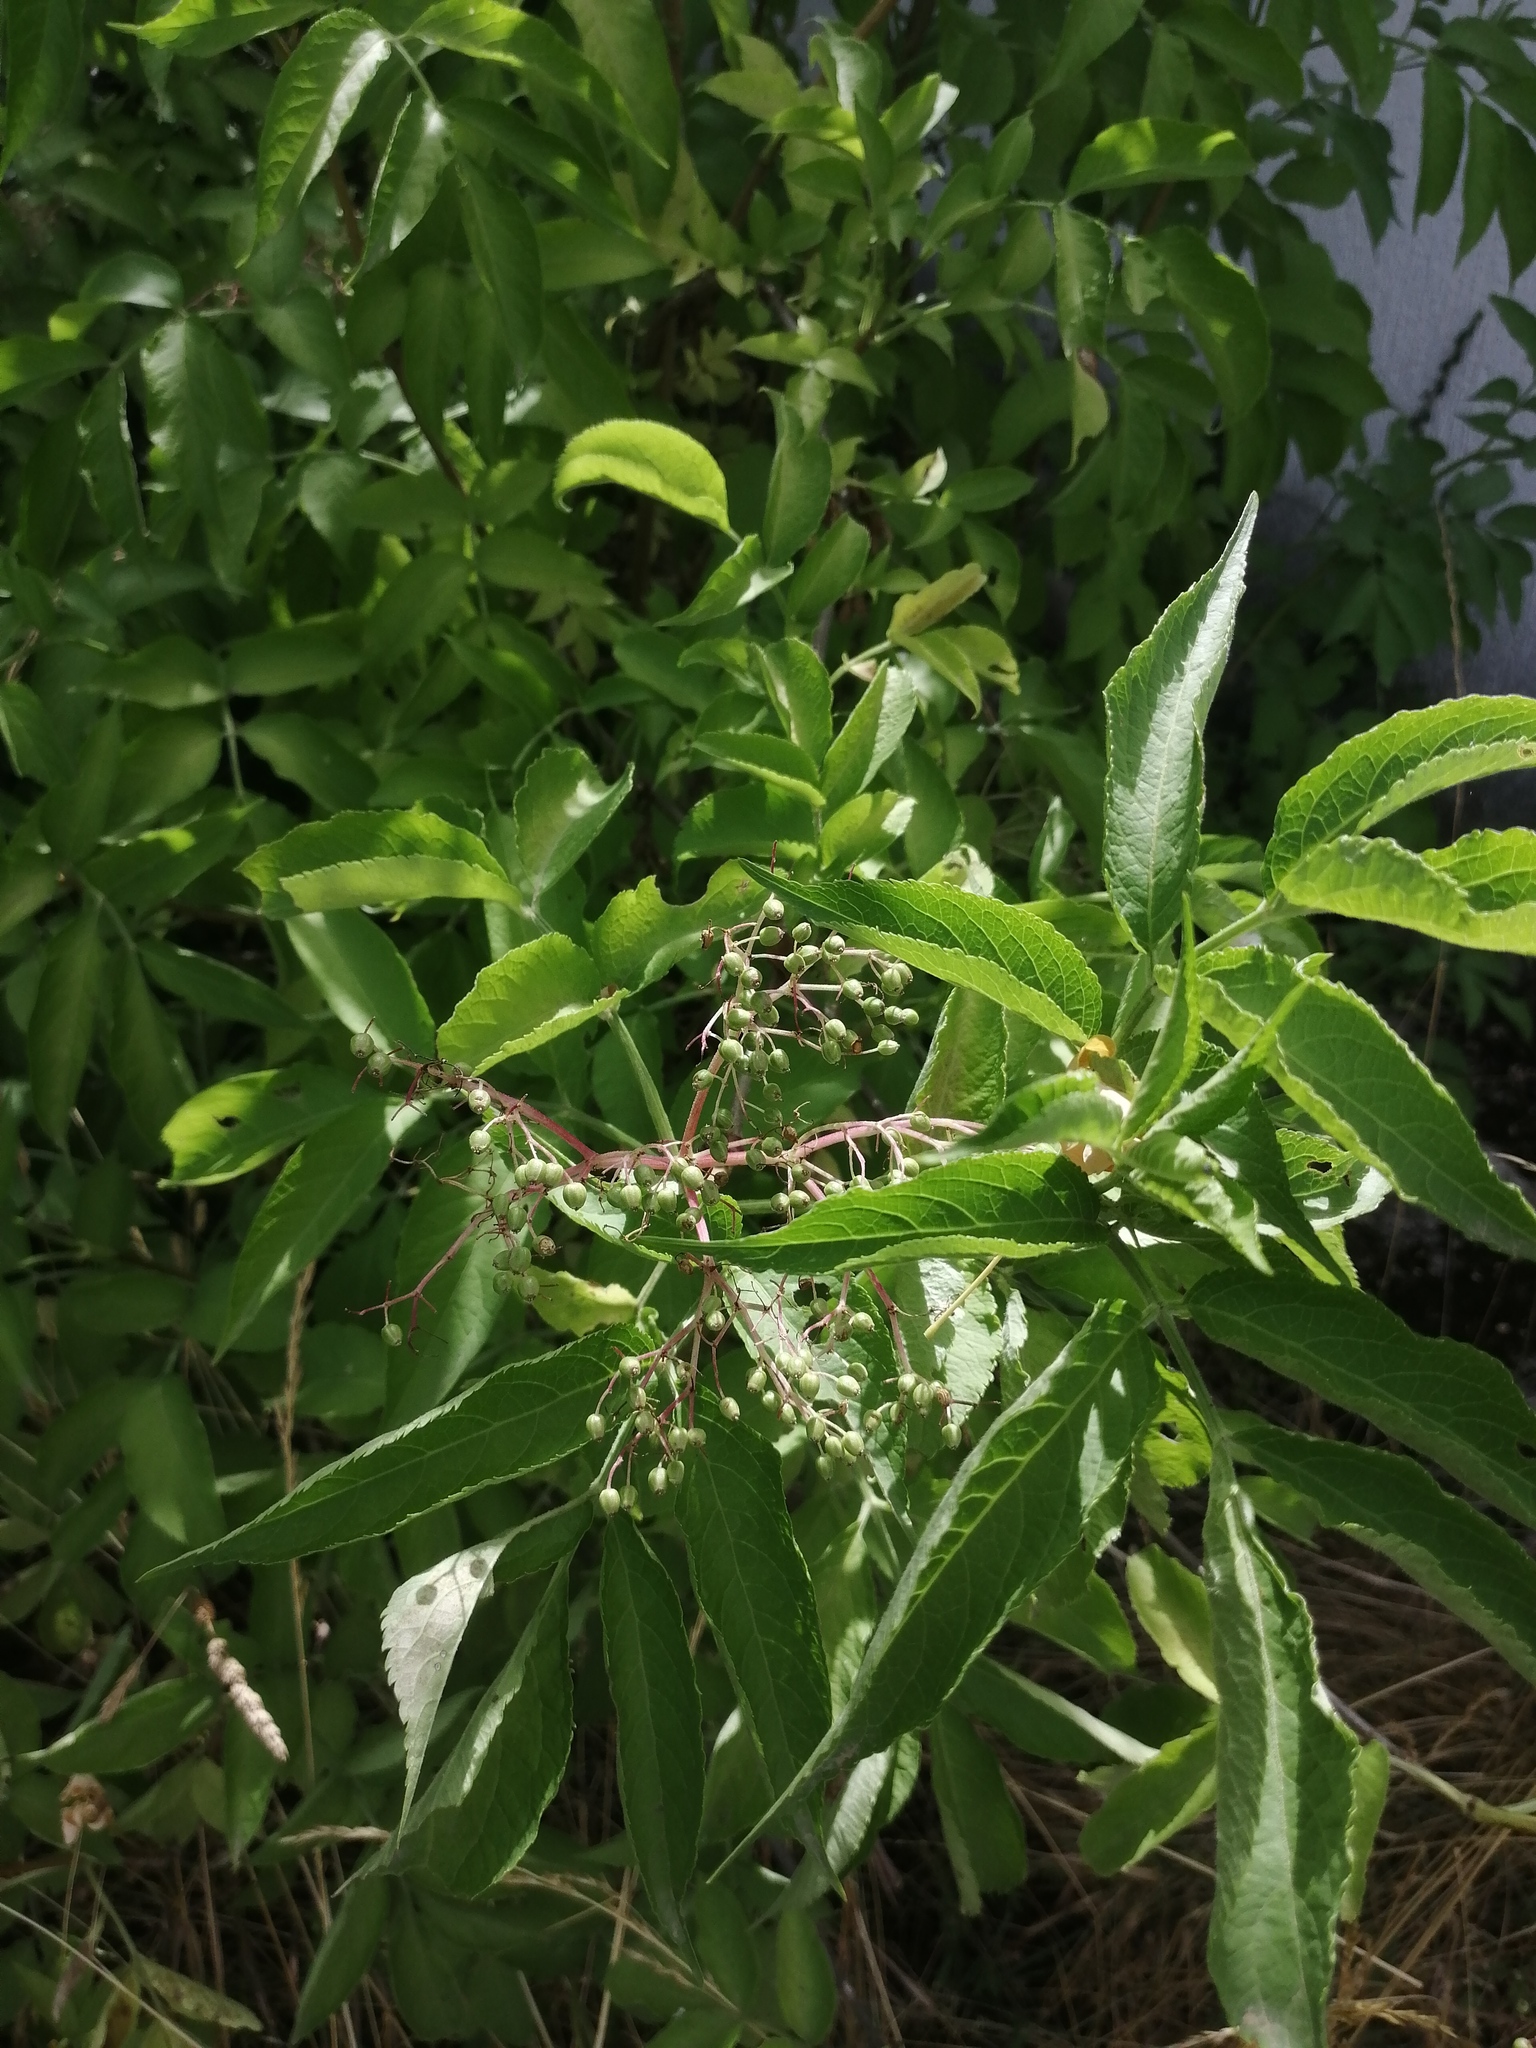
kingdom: Plantae
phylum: Tracheophyta
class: Magnoliopsida
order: Dipsacales
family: Viburnaceae
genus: Sambucus
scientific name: Sambucus nigra
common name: Elder
